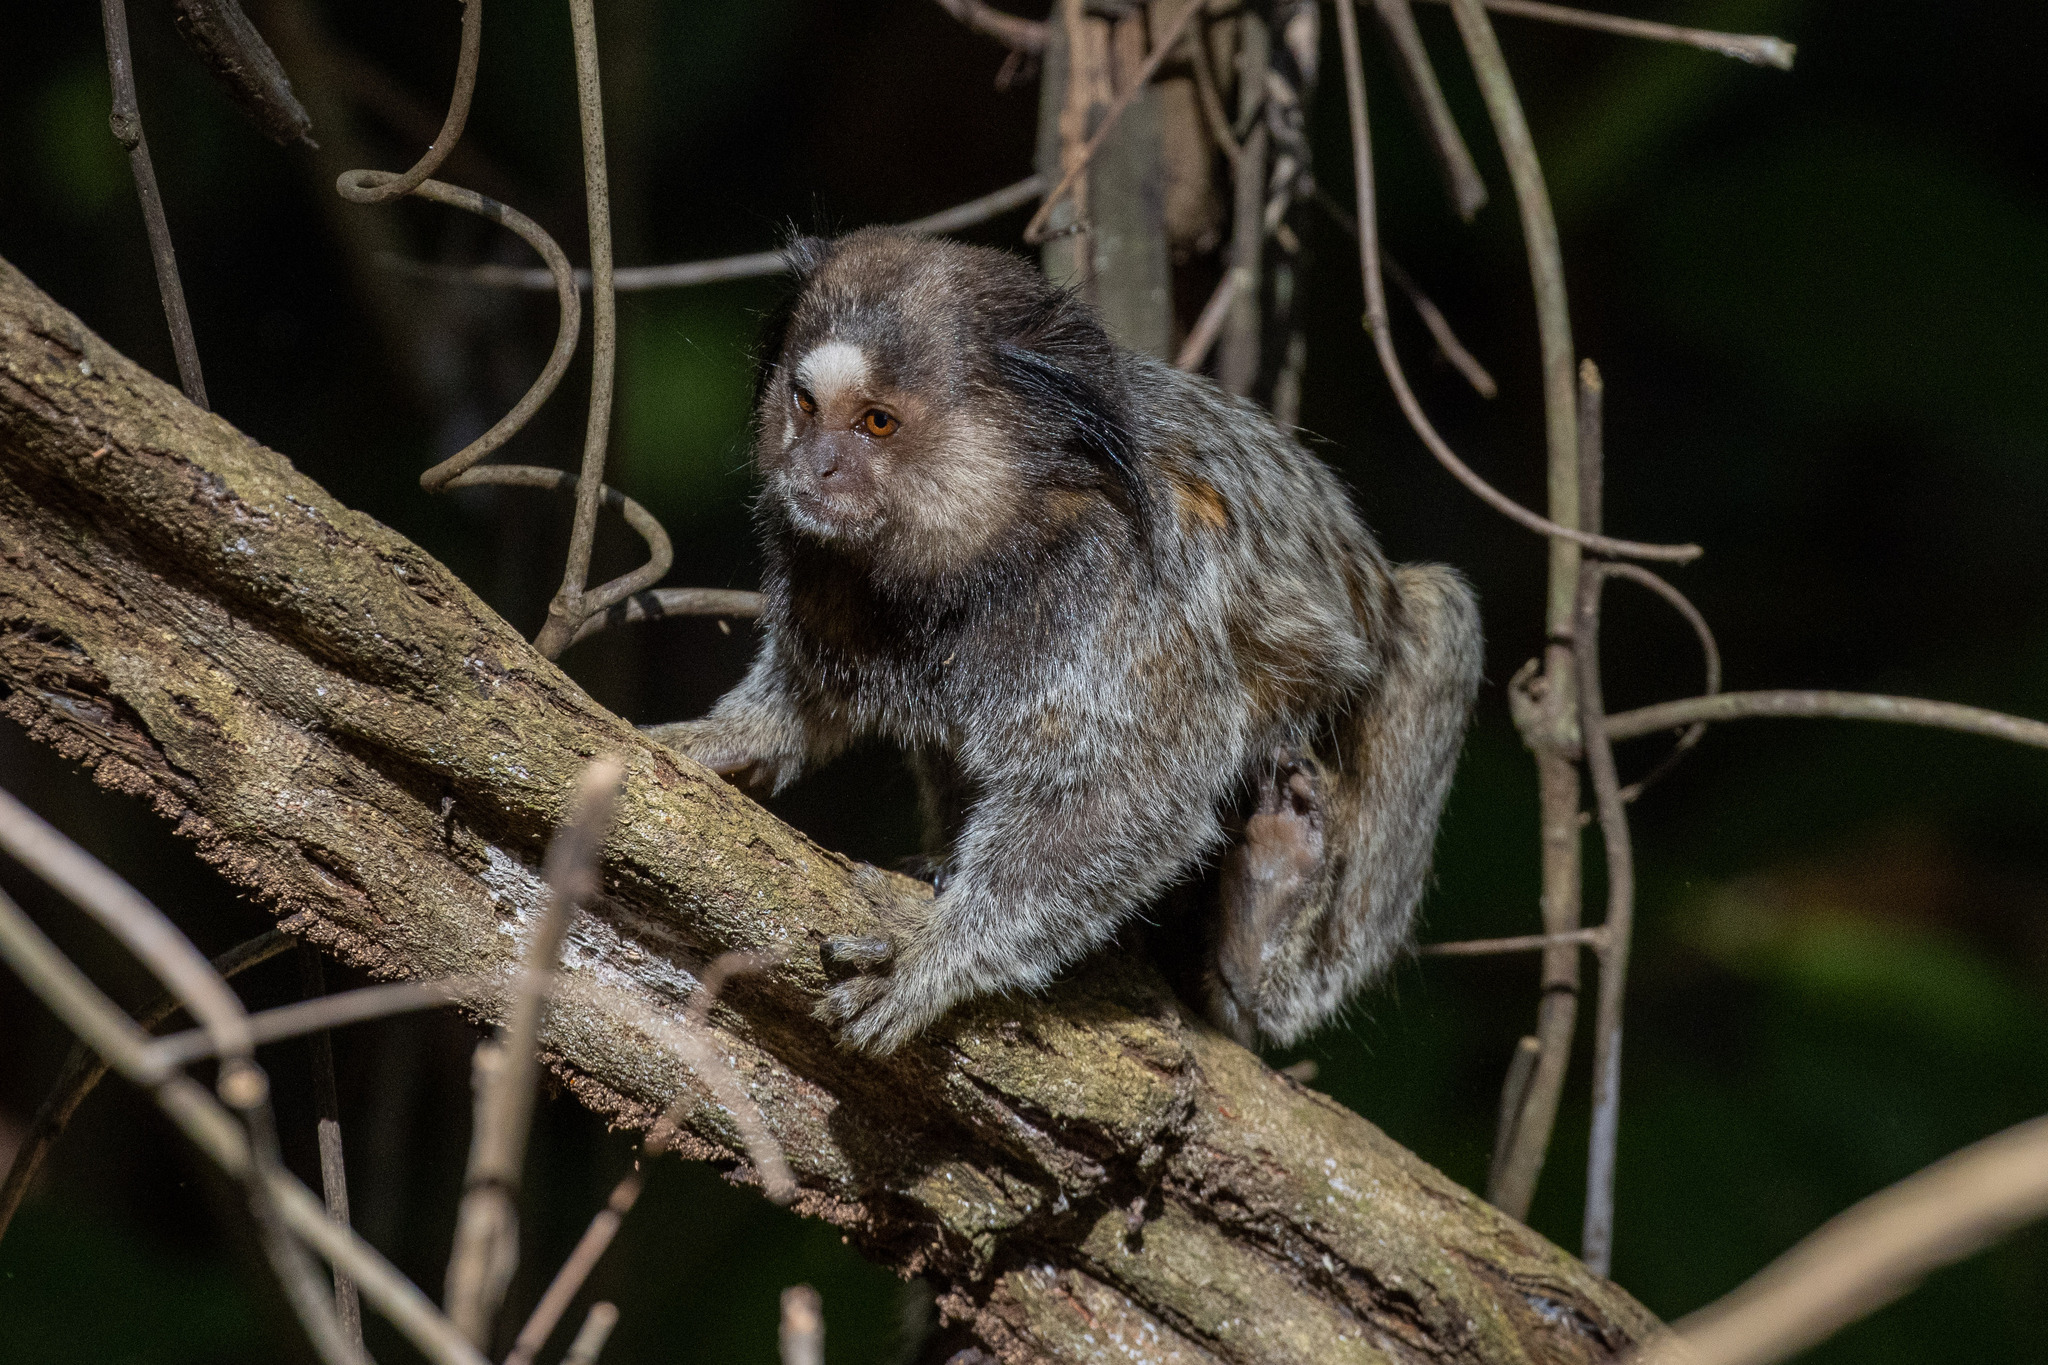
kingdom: Animalia
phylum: Chordata
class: Mammalia
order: Primates
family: Callitrichidae
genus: Callithrix
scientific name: Callithrix penicillata
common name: Black-tufted marmoset
